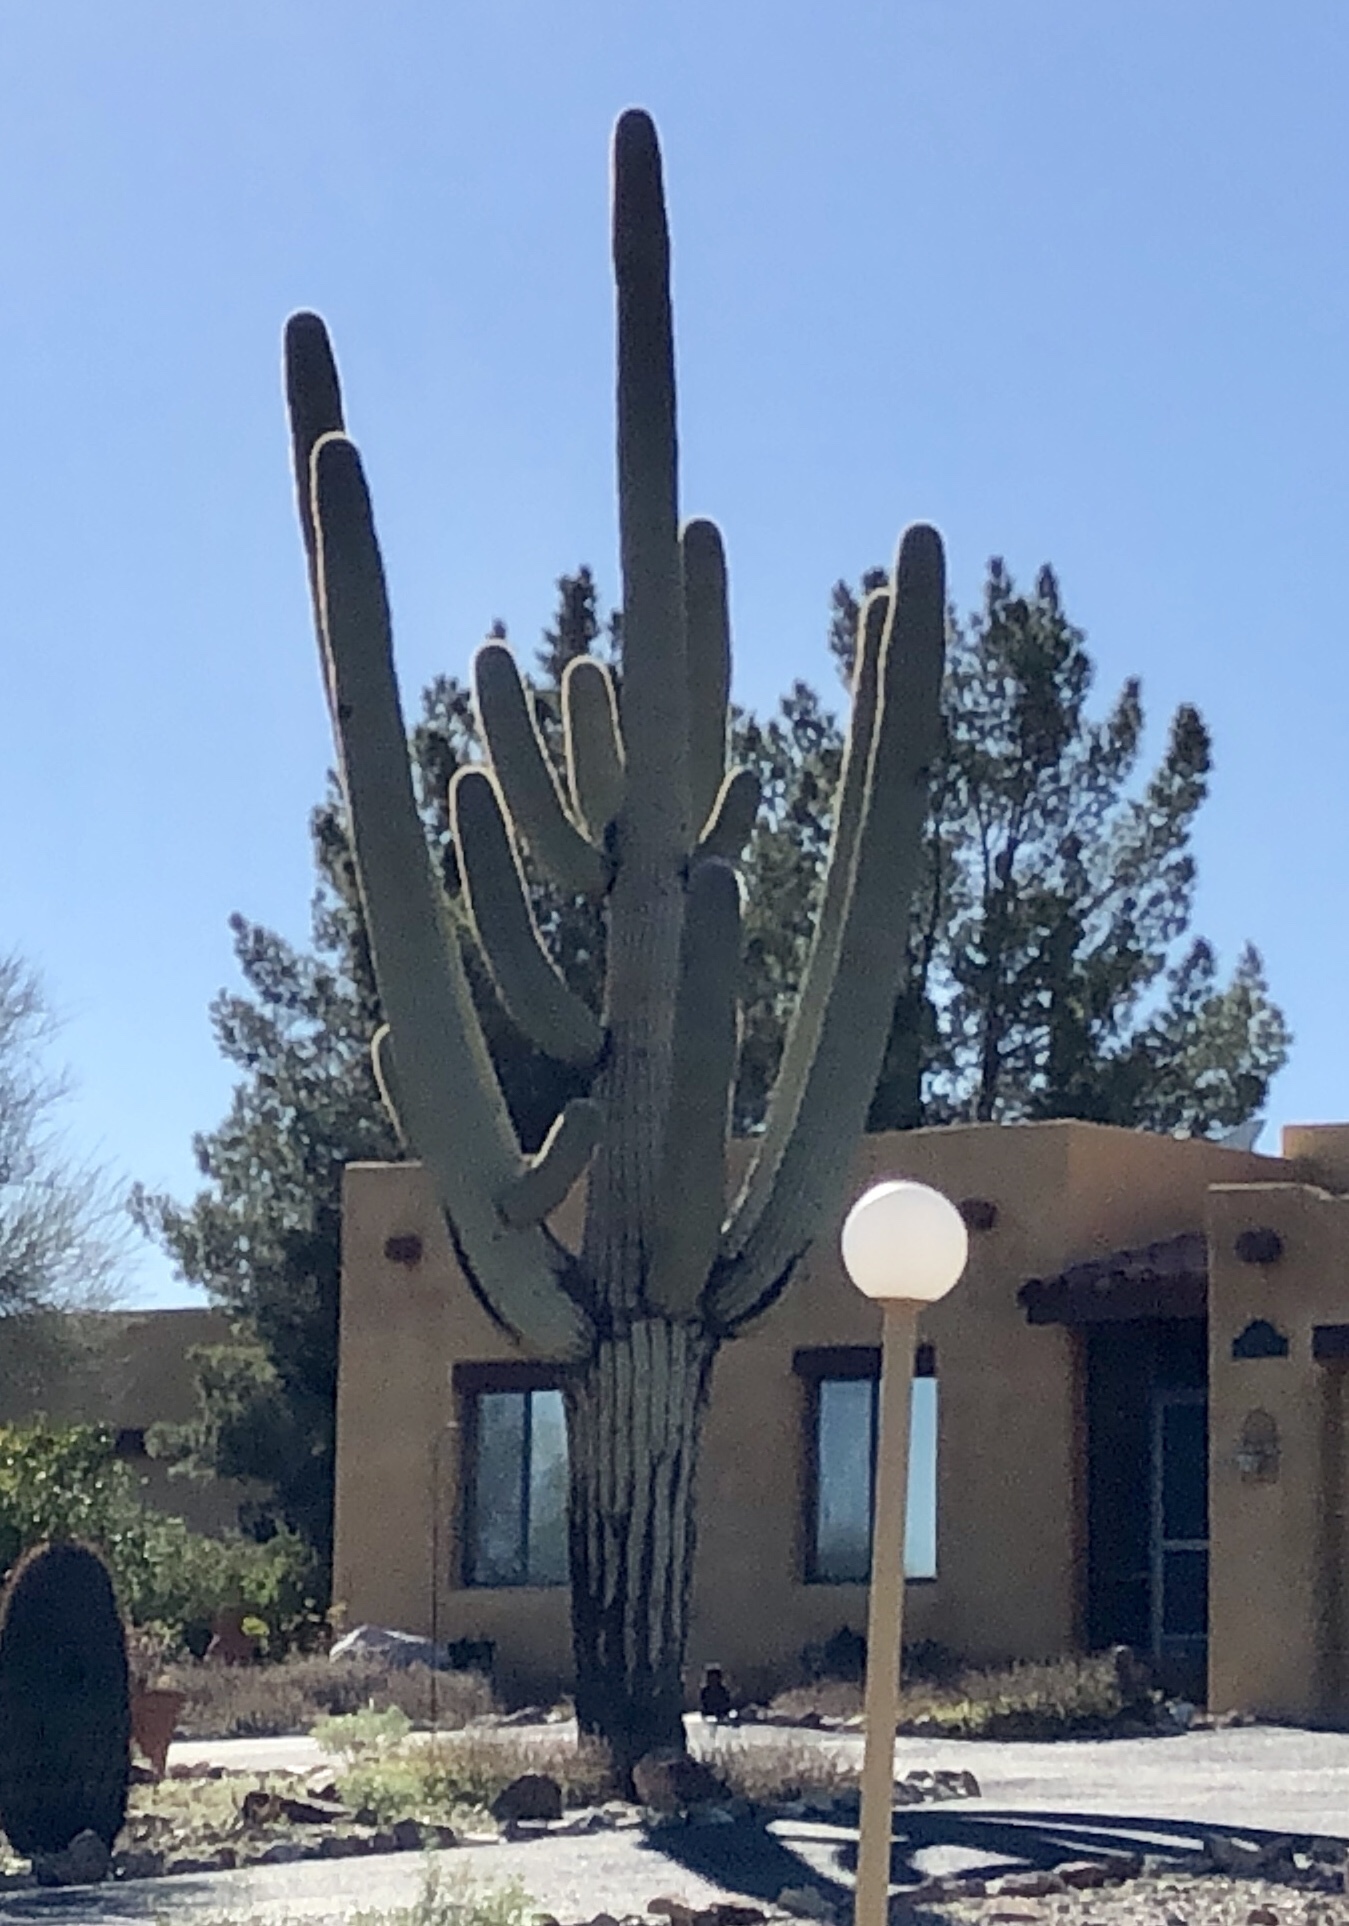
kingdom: Plantae
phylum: Tracheophyta
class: Magnoliopsida
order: Caryophyllales
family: Cactaceae
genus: Carnegiea
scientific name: Carnegiea gigantea
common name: Saguaro
